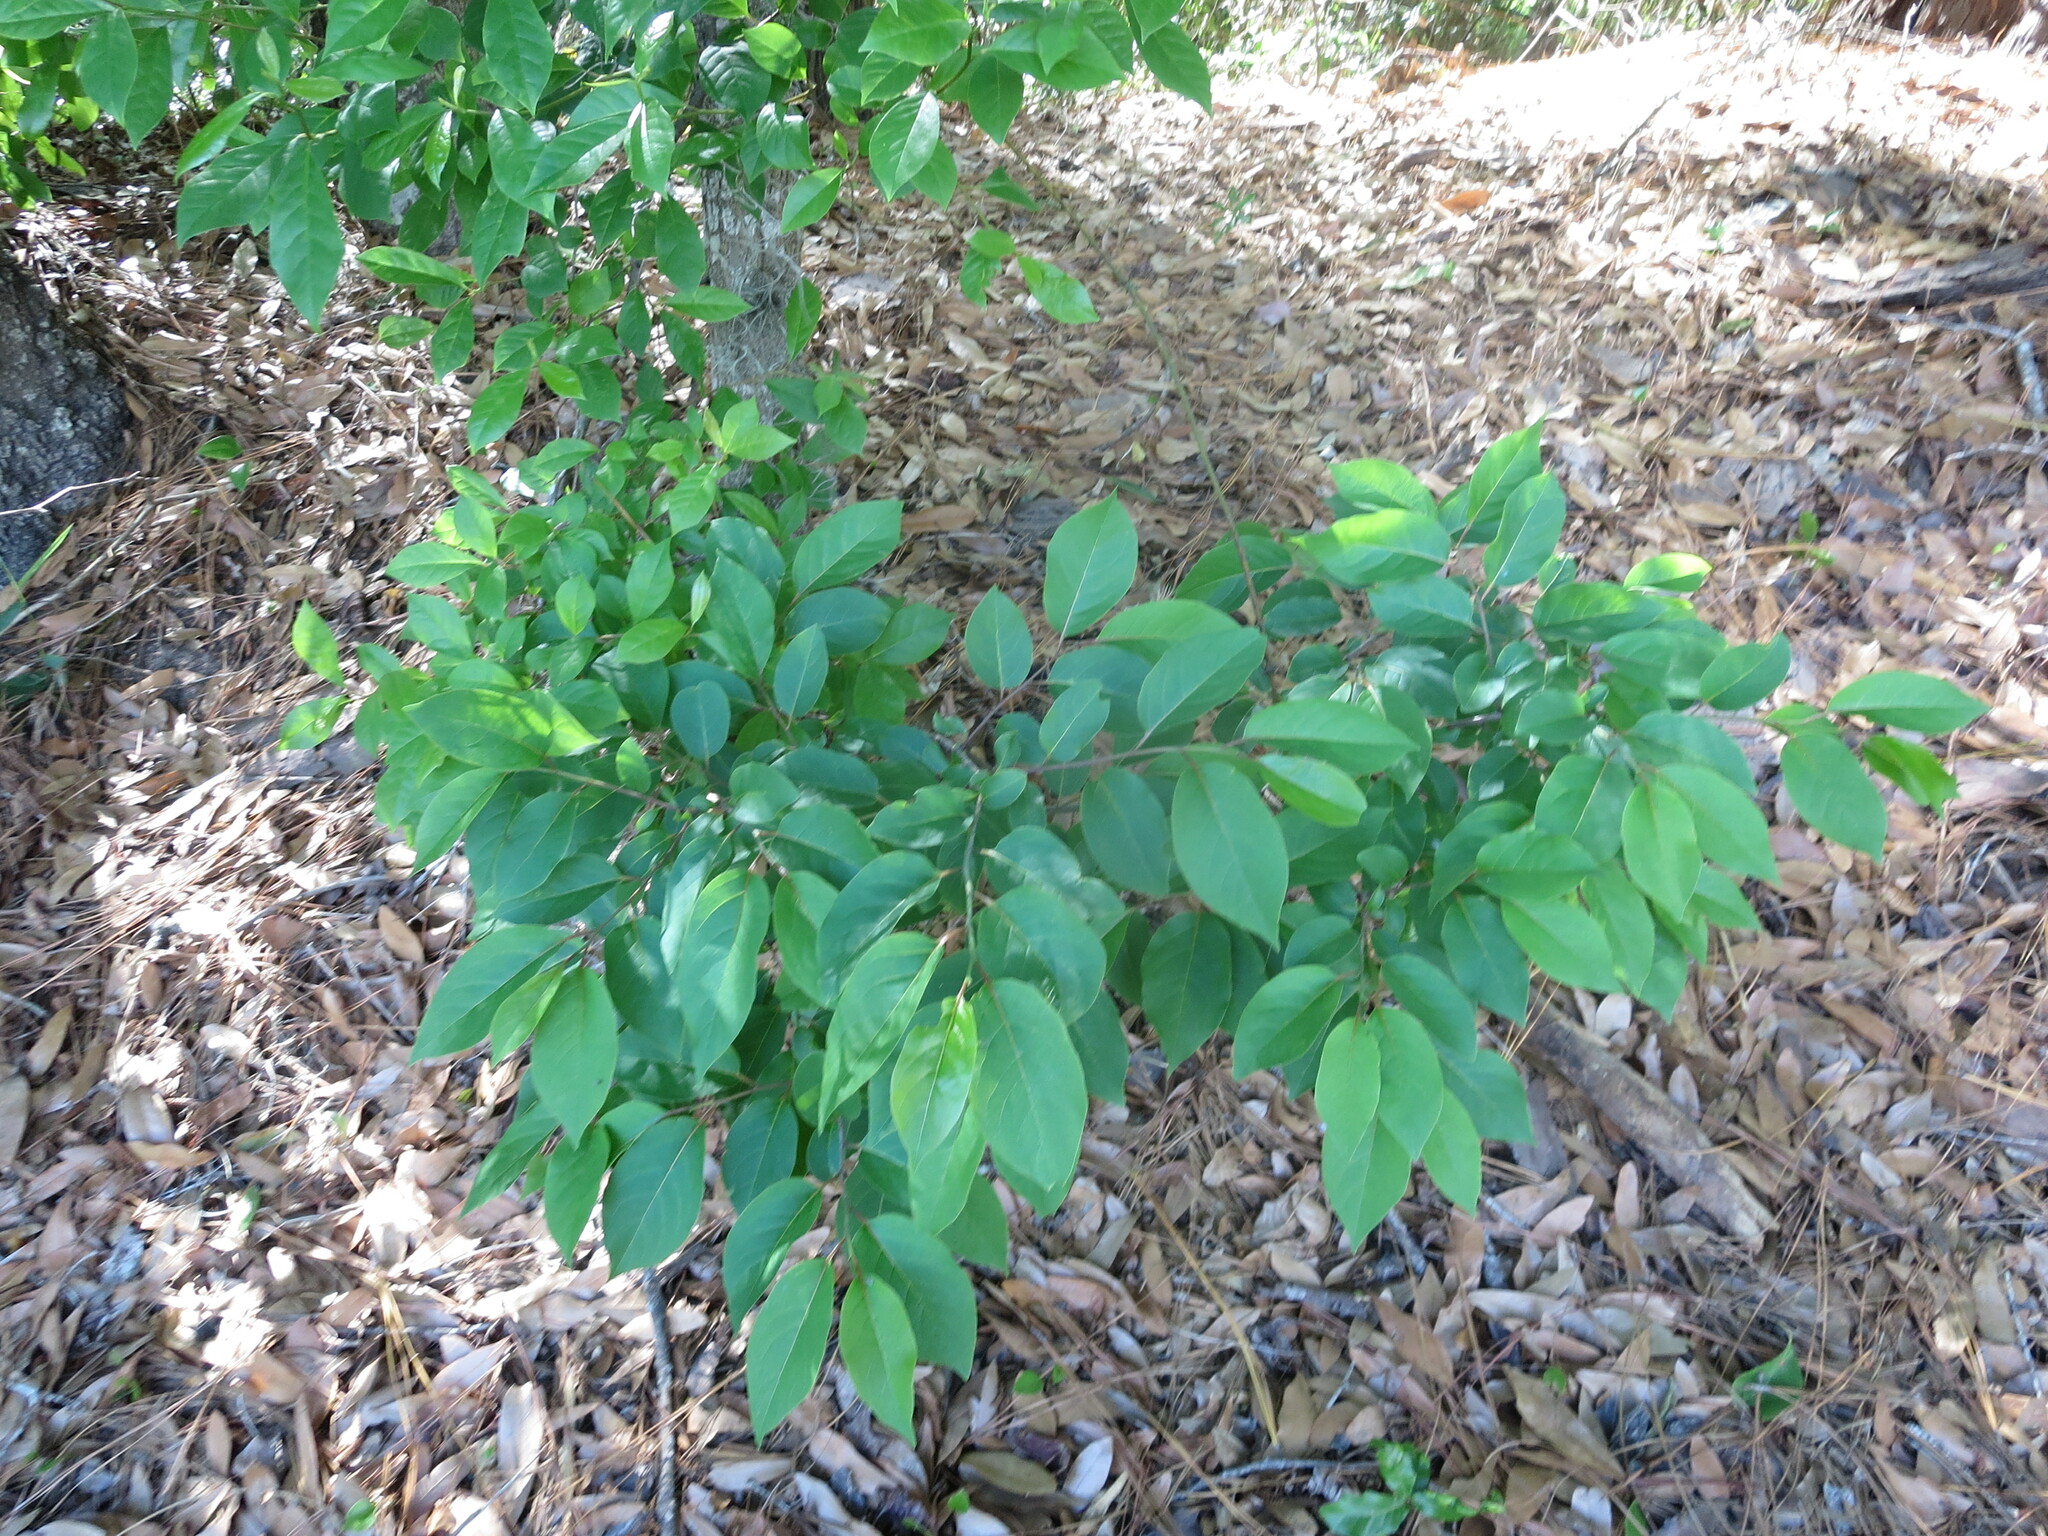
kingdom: Plantae
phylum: Tracheophyta
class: Magnoliopsida
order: Ericales
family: Ebenaceae
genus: Diospyros
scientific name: Diospyros virginiana
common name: Persimmon
